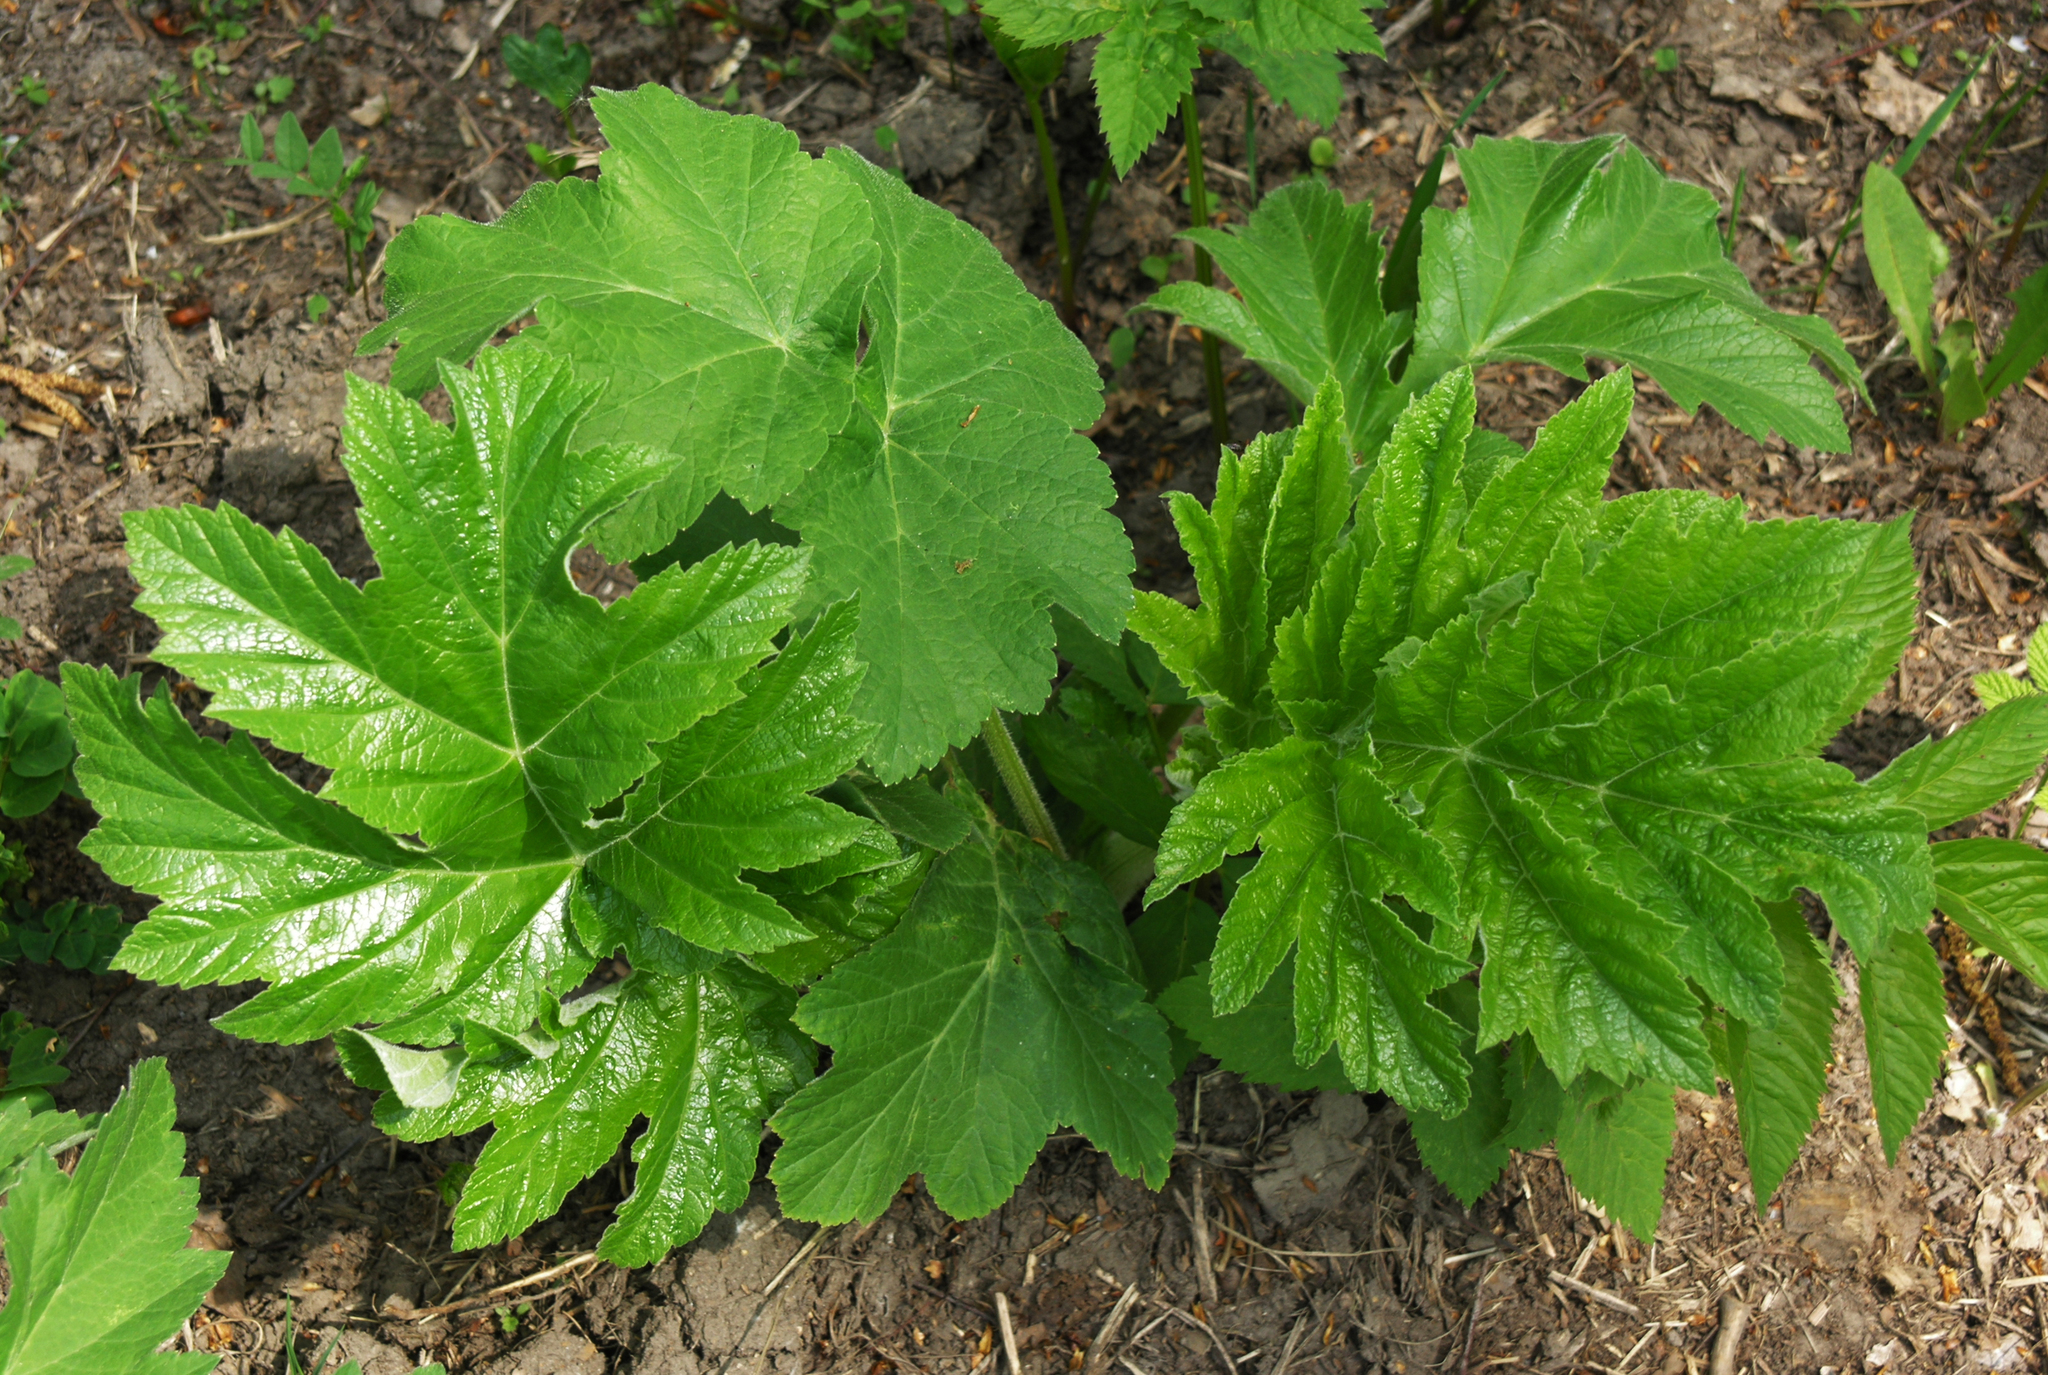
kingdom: Plantae
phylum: Tracheophyta
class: Magnoliopsida
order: Apiales
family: Apiaceae
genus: Heracleum
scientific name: Heracleum dissectum
